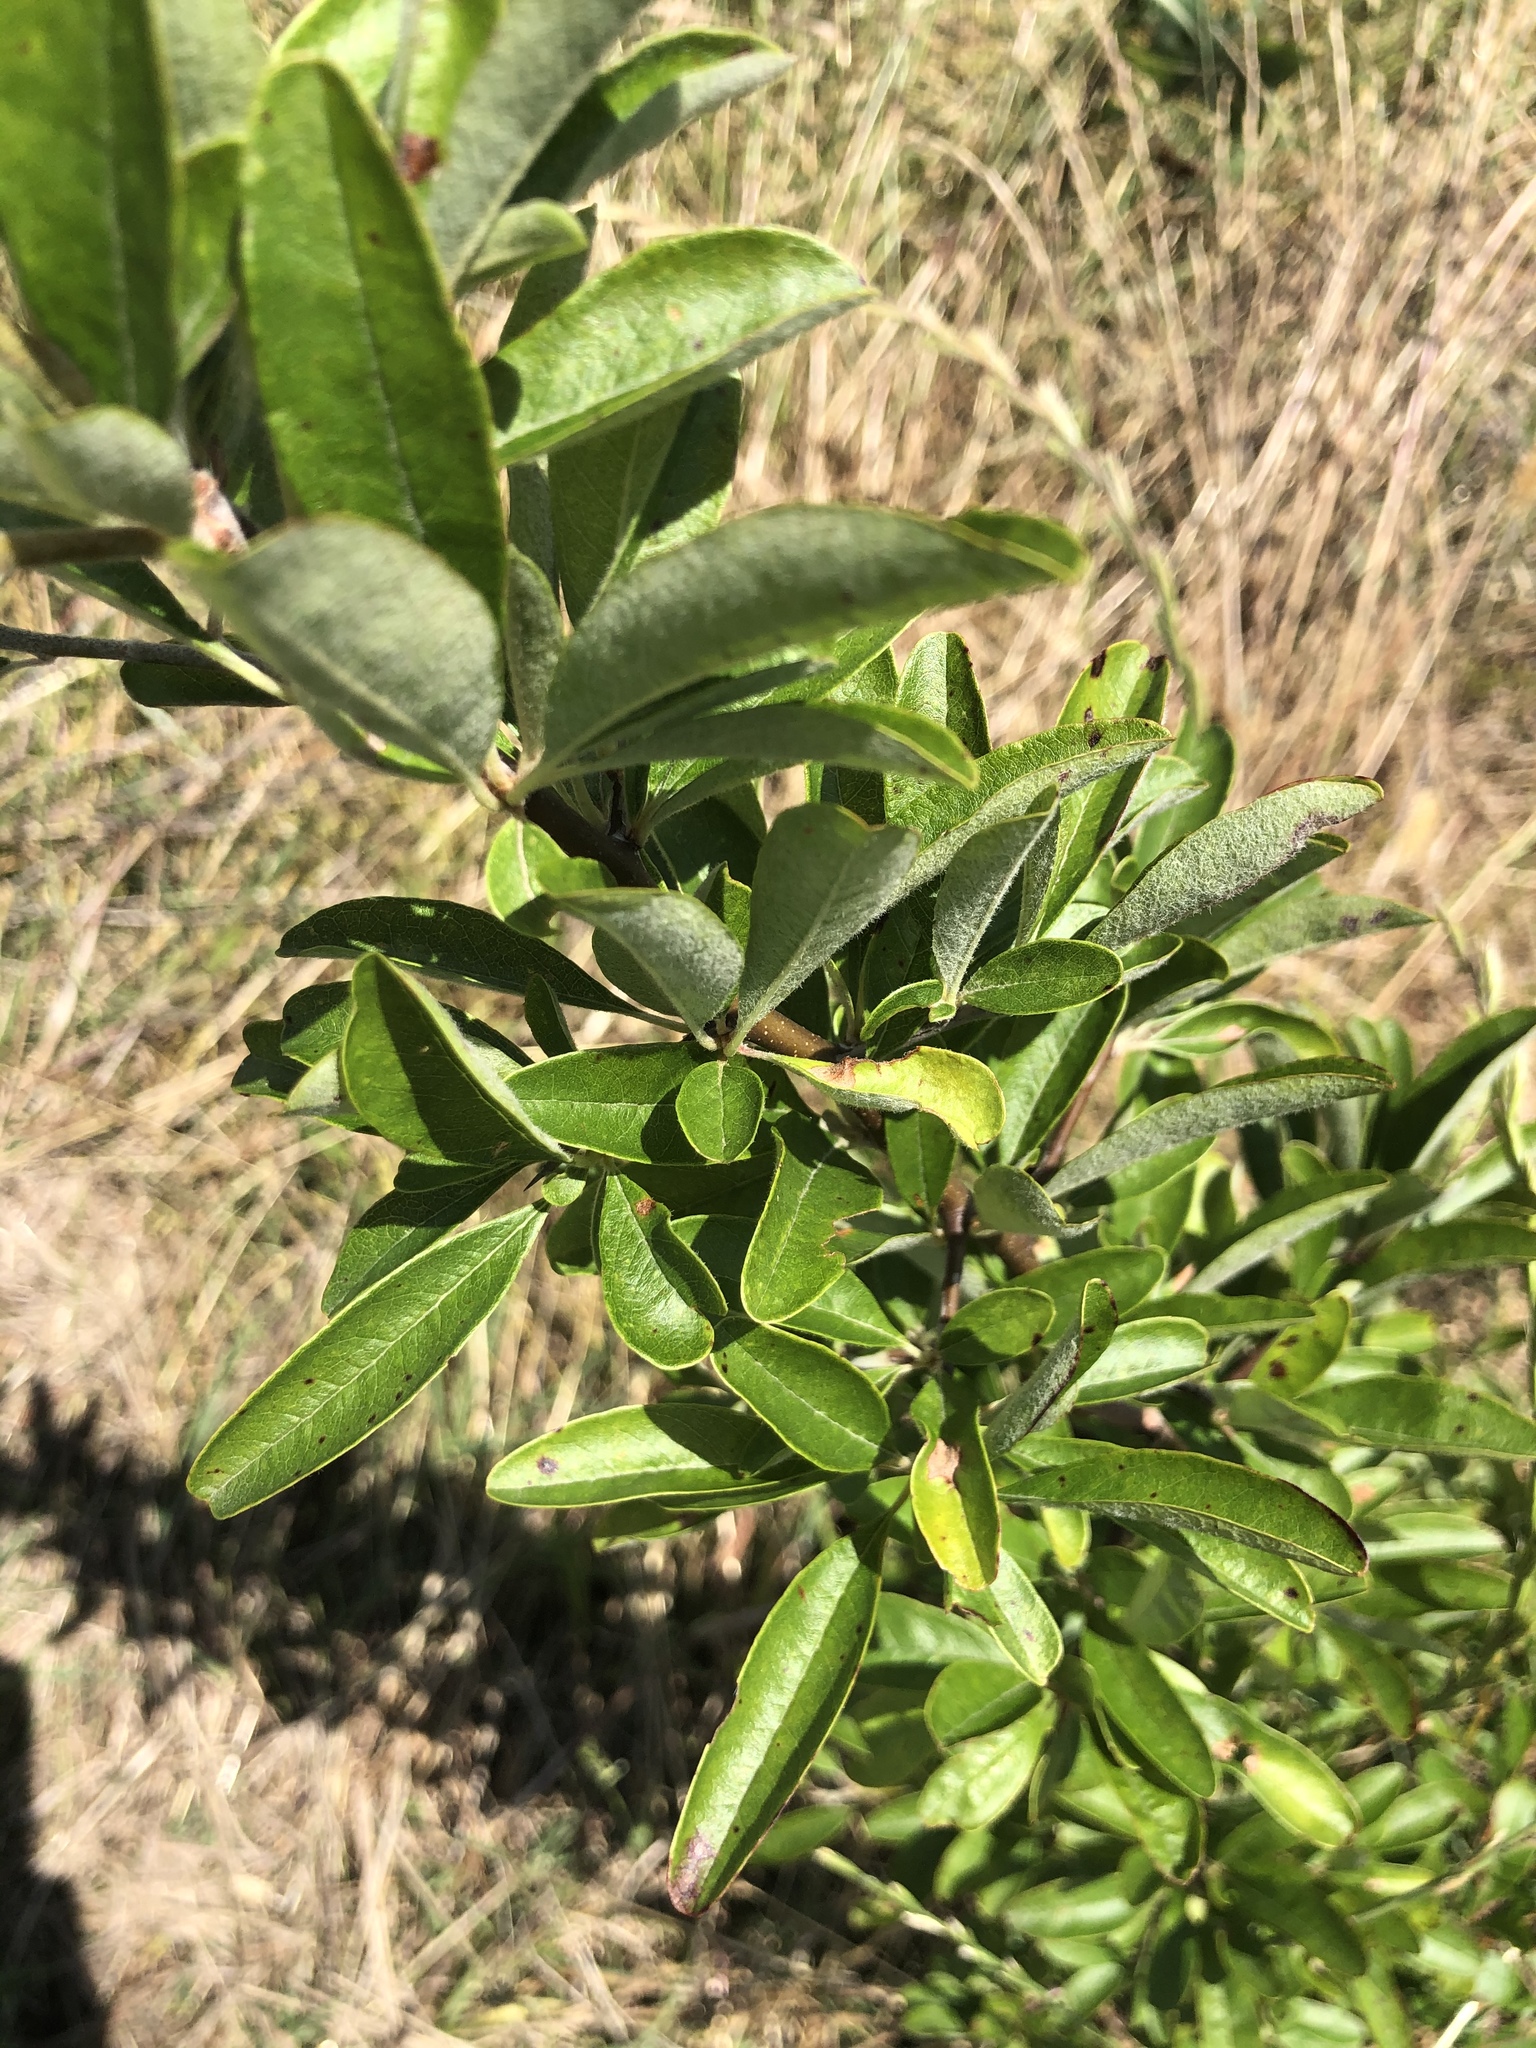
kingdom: Plantae
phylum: Tracheophyta
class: Magnoliopsida
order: Ericales
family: Sapotaceae
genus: Sideroxylon
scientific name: Sideroxylon lanuginosum
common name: Chittamwood
